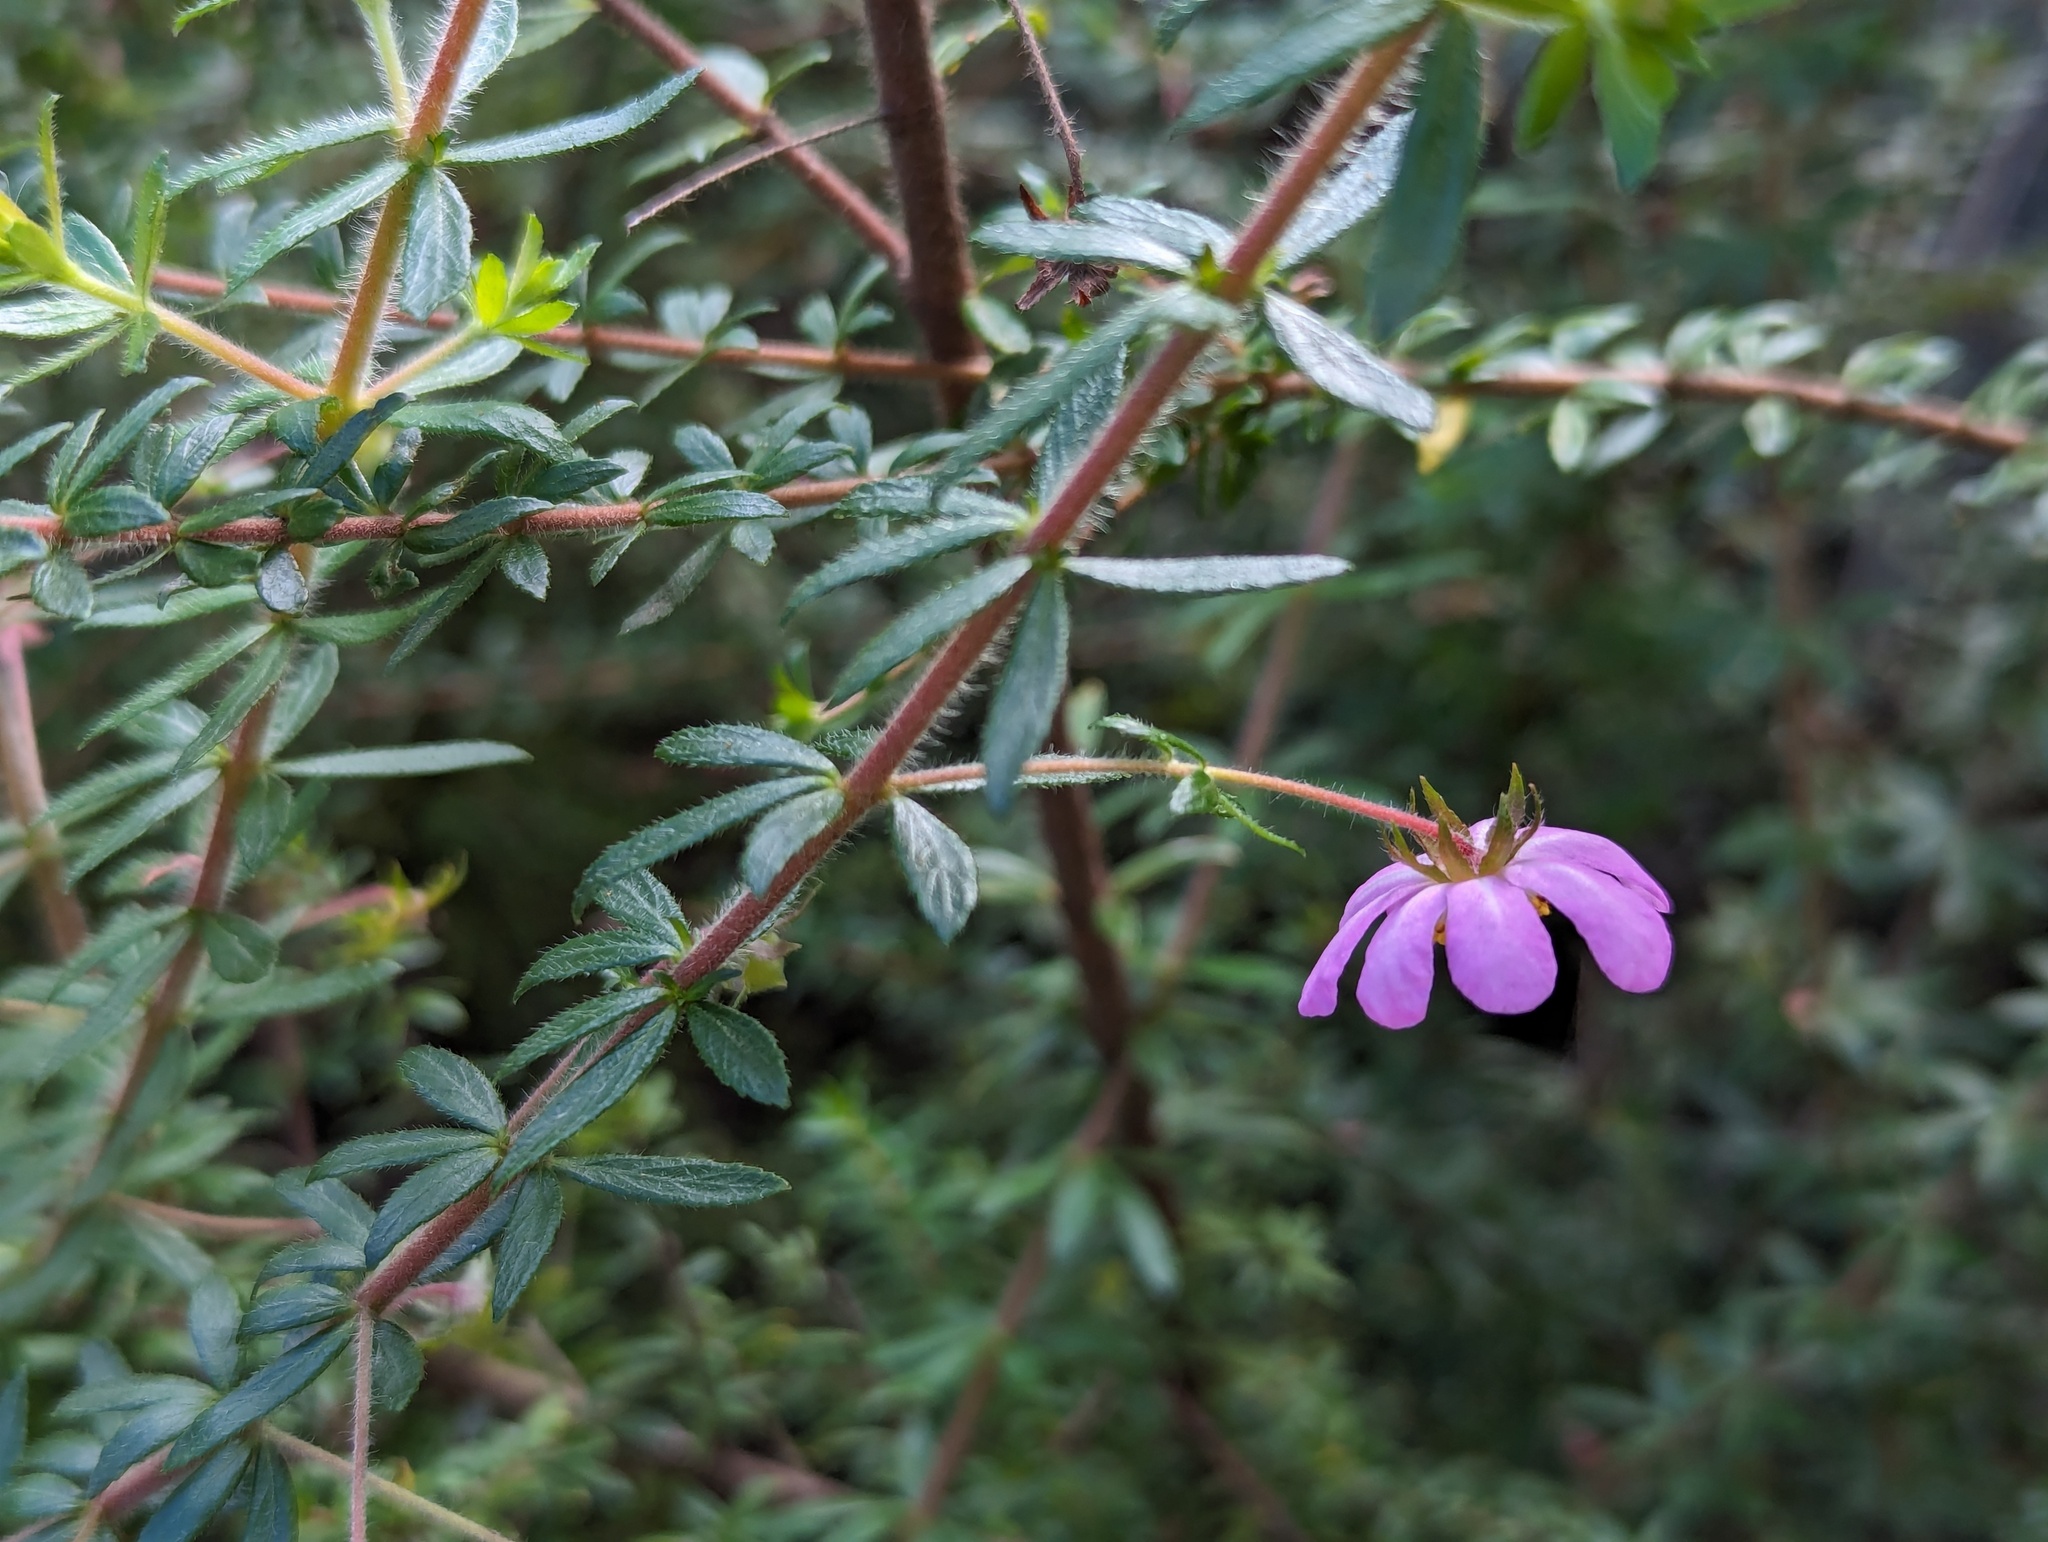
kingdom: Plantae
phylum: Tracheophyta
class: Magnoliopsida
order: Oxalidales
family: Cunoniaceae
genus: Bauera
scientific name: Bauera rubioides
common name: River-rose
